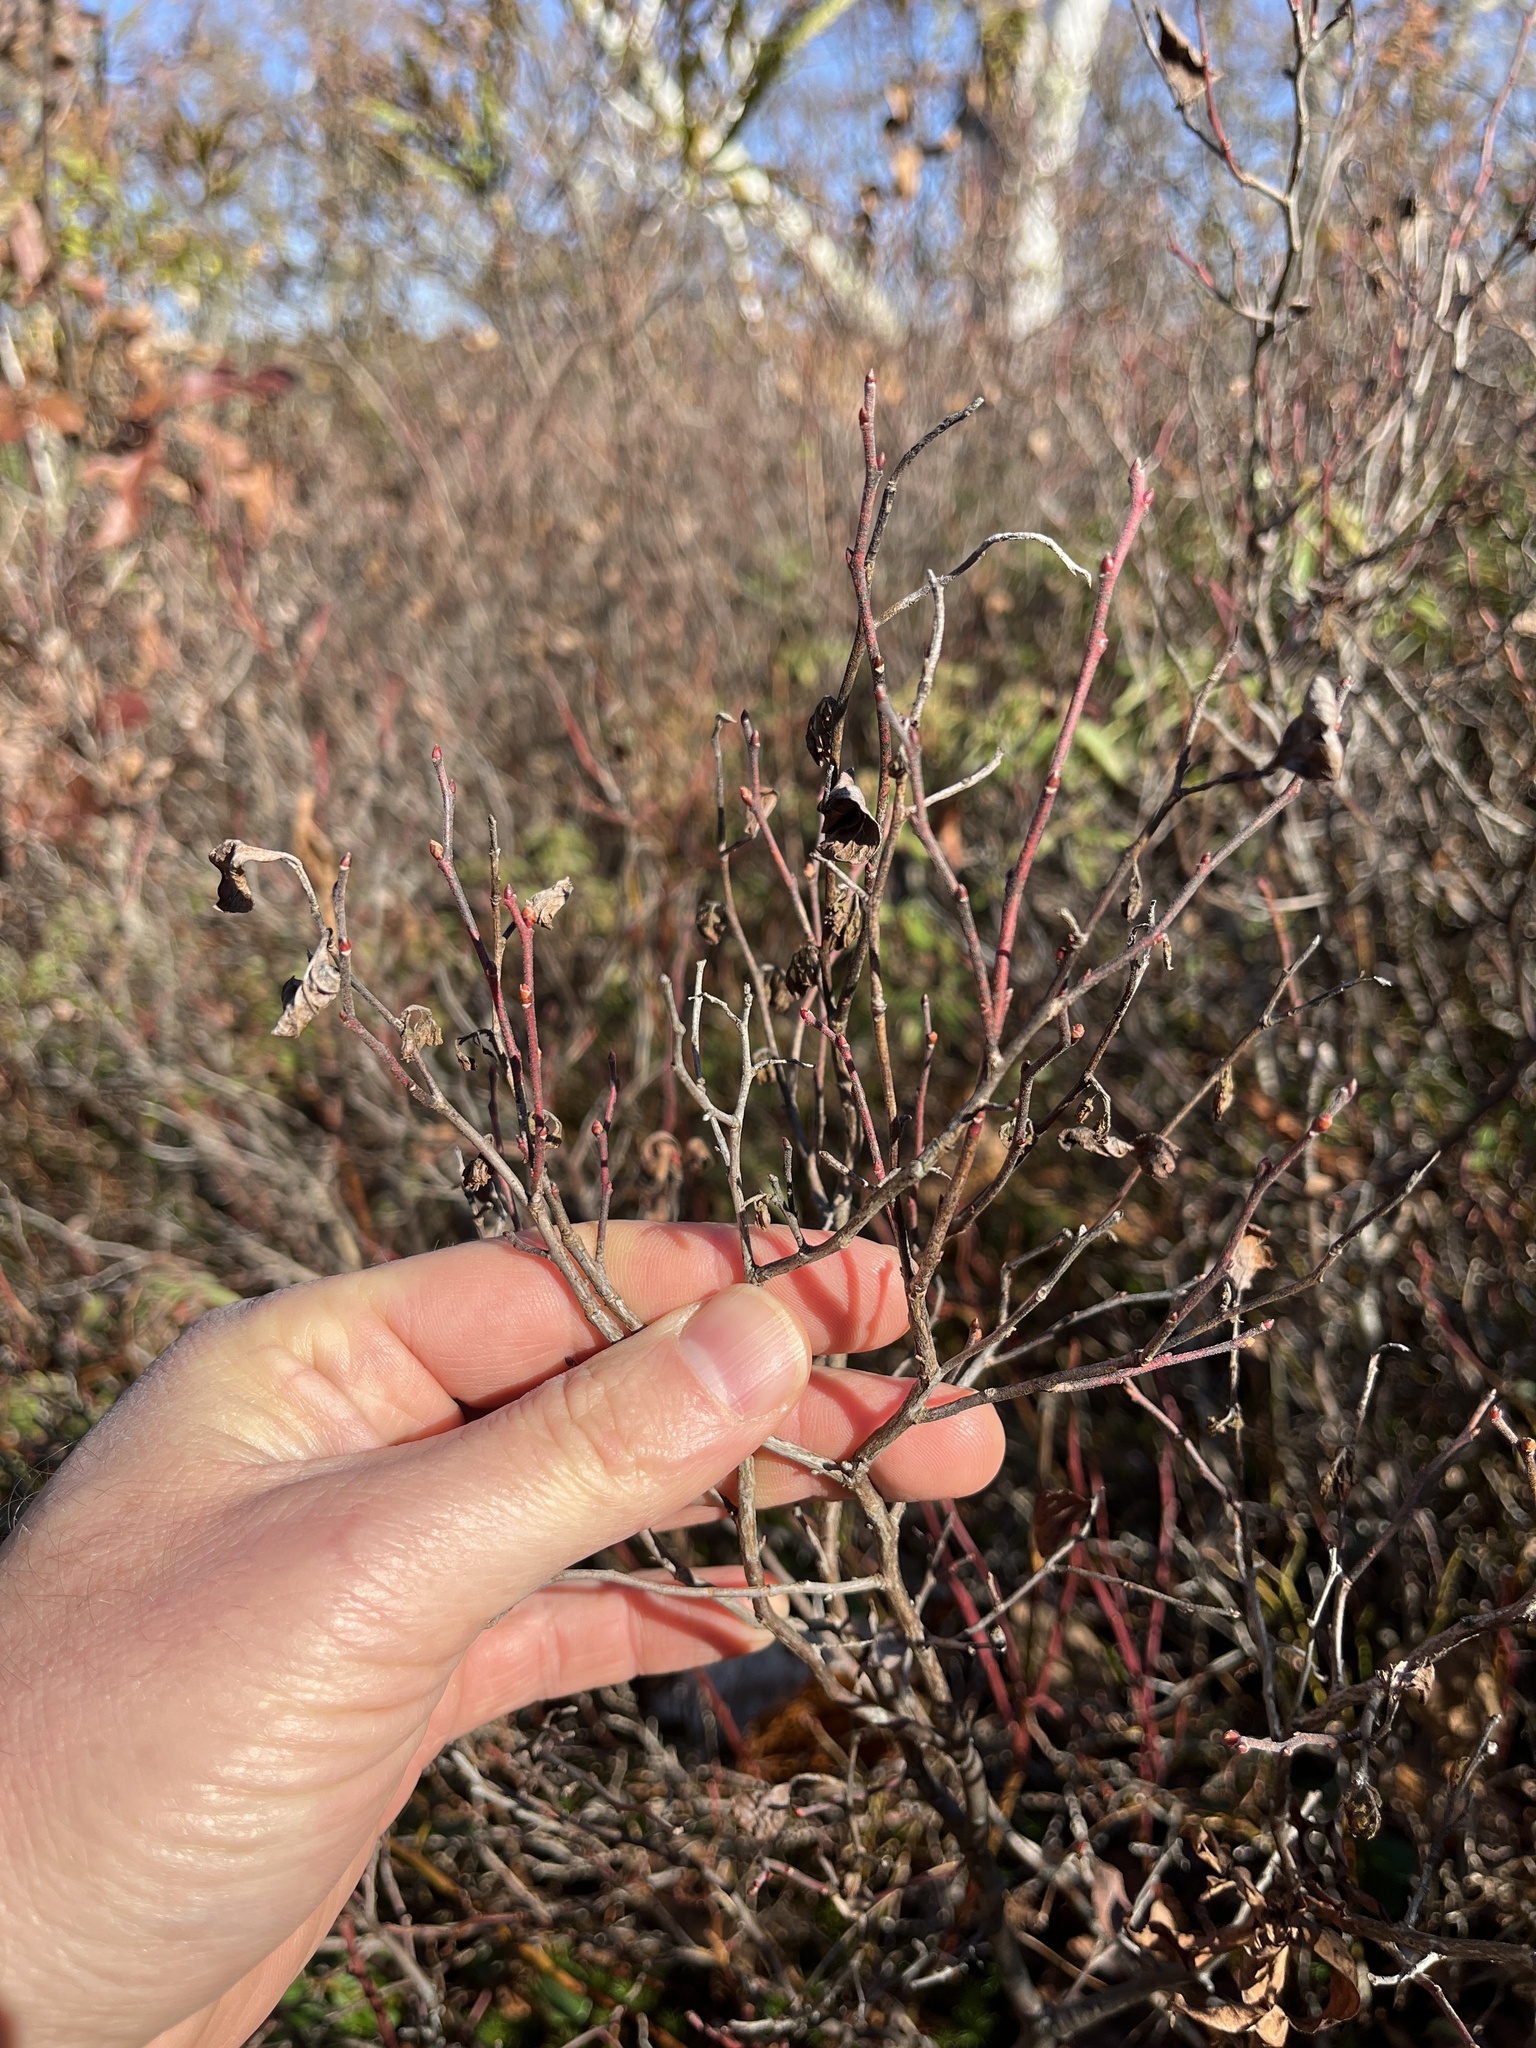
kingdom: Plantae
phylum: Tracheophyta
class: Magnoliopsida
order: Ericales
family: Ericaceae
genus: Gaylussacia
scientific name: Gaylussacia baccata
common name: Black huckleberry
